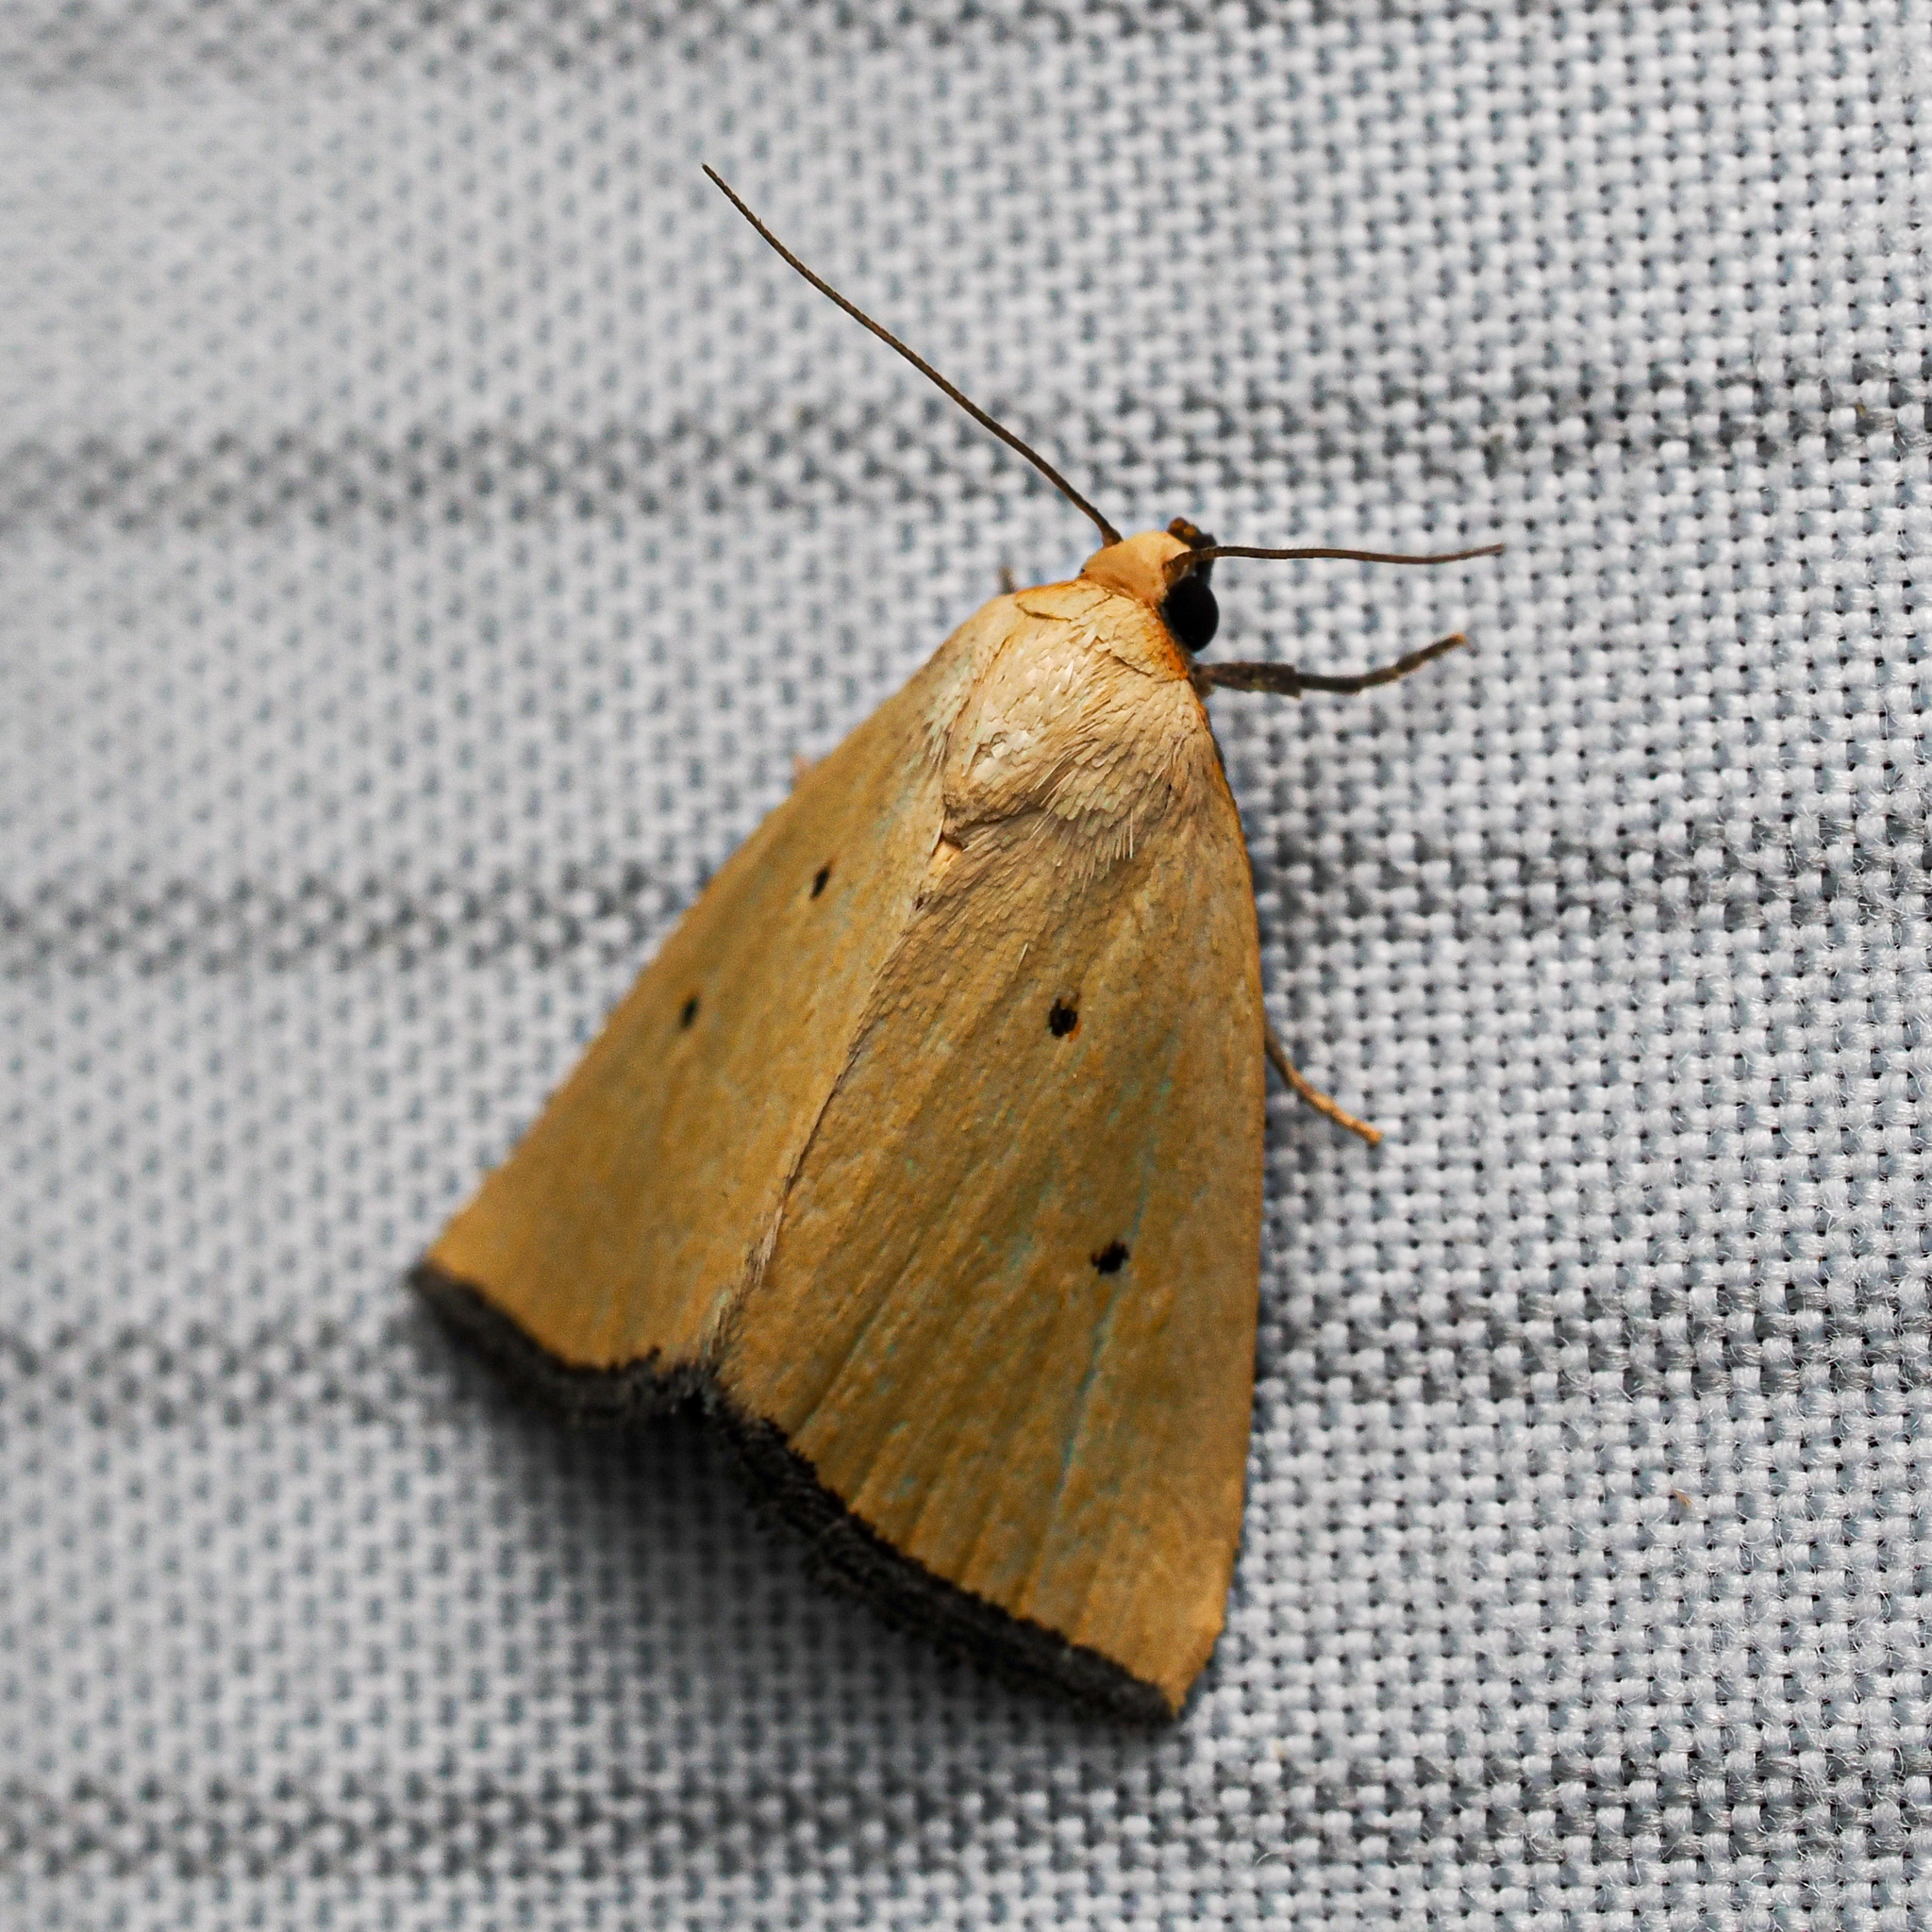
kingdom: Animalia
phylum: Arthropoda
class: Insecta
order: Lepidoptera
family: Noctuidae
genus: Marimatha
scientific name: Marimatha nigrofimbria
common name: Black-bordered lemon moth
